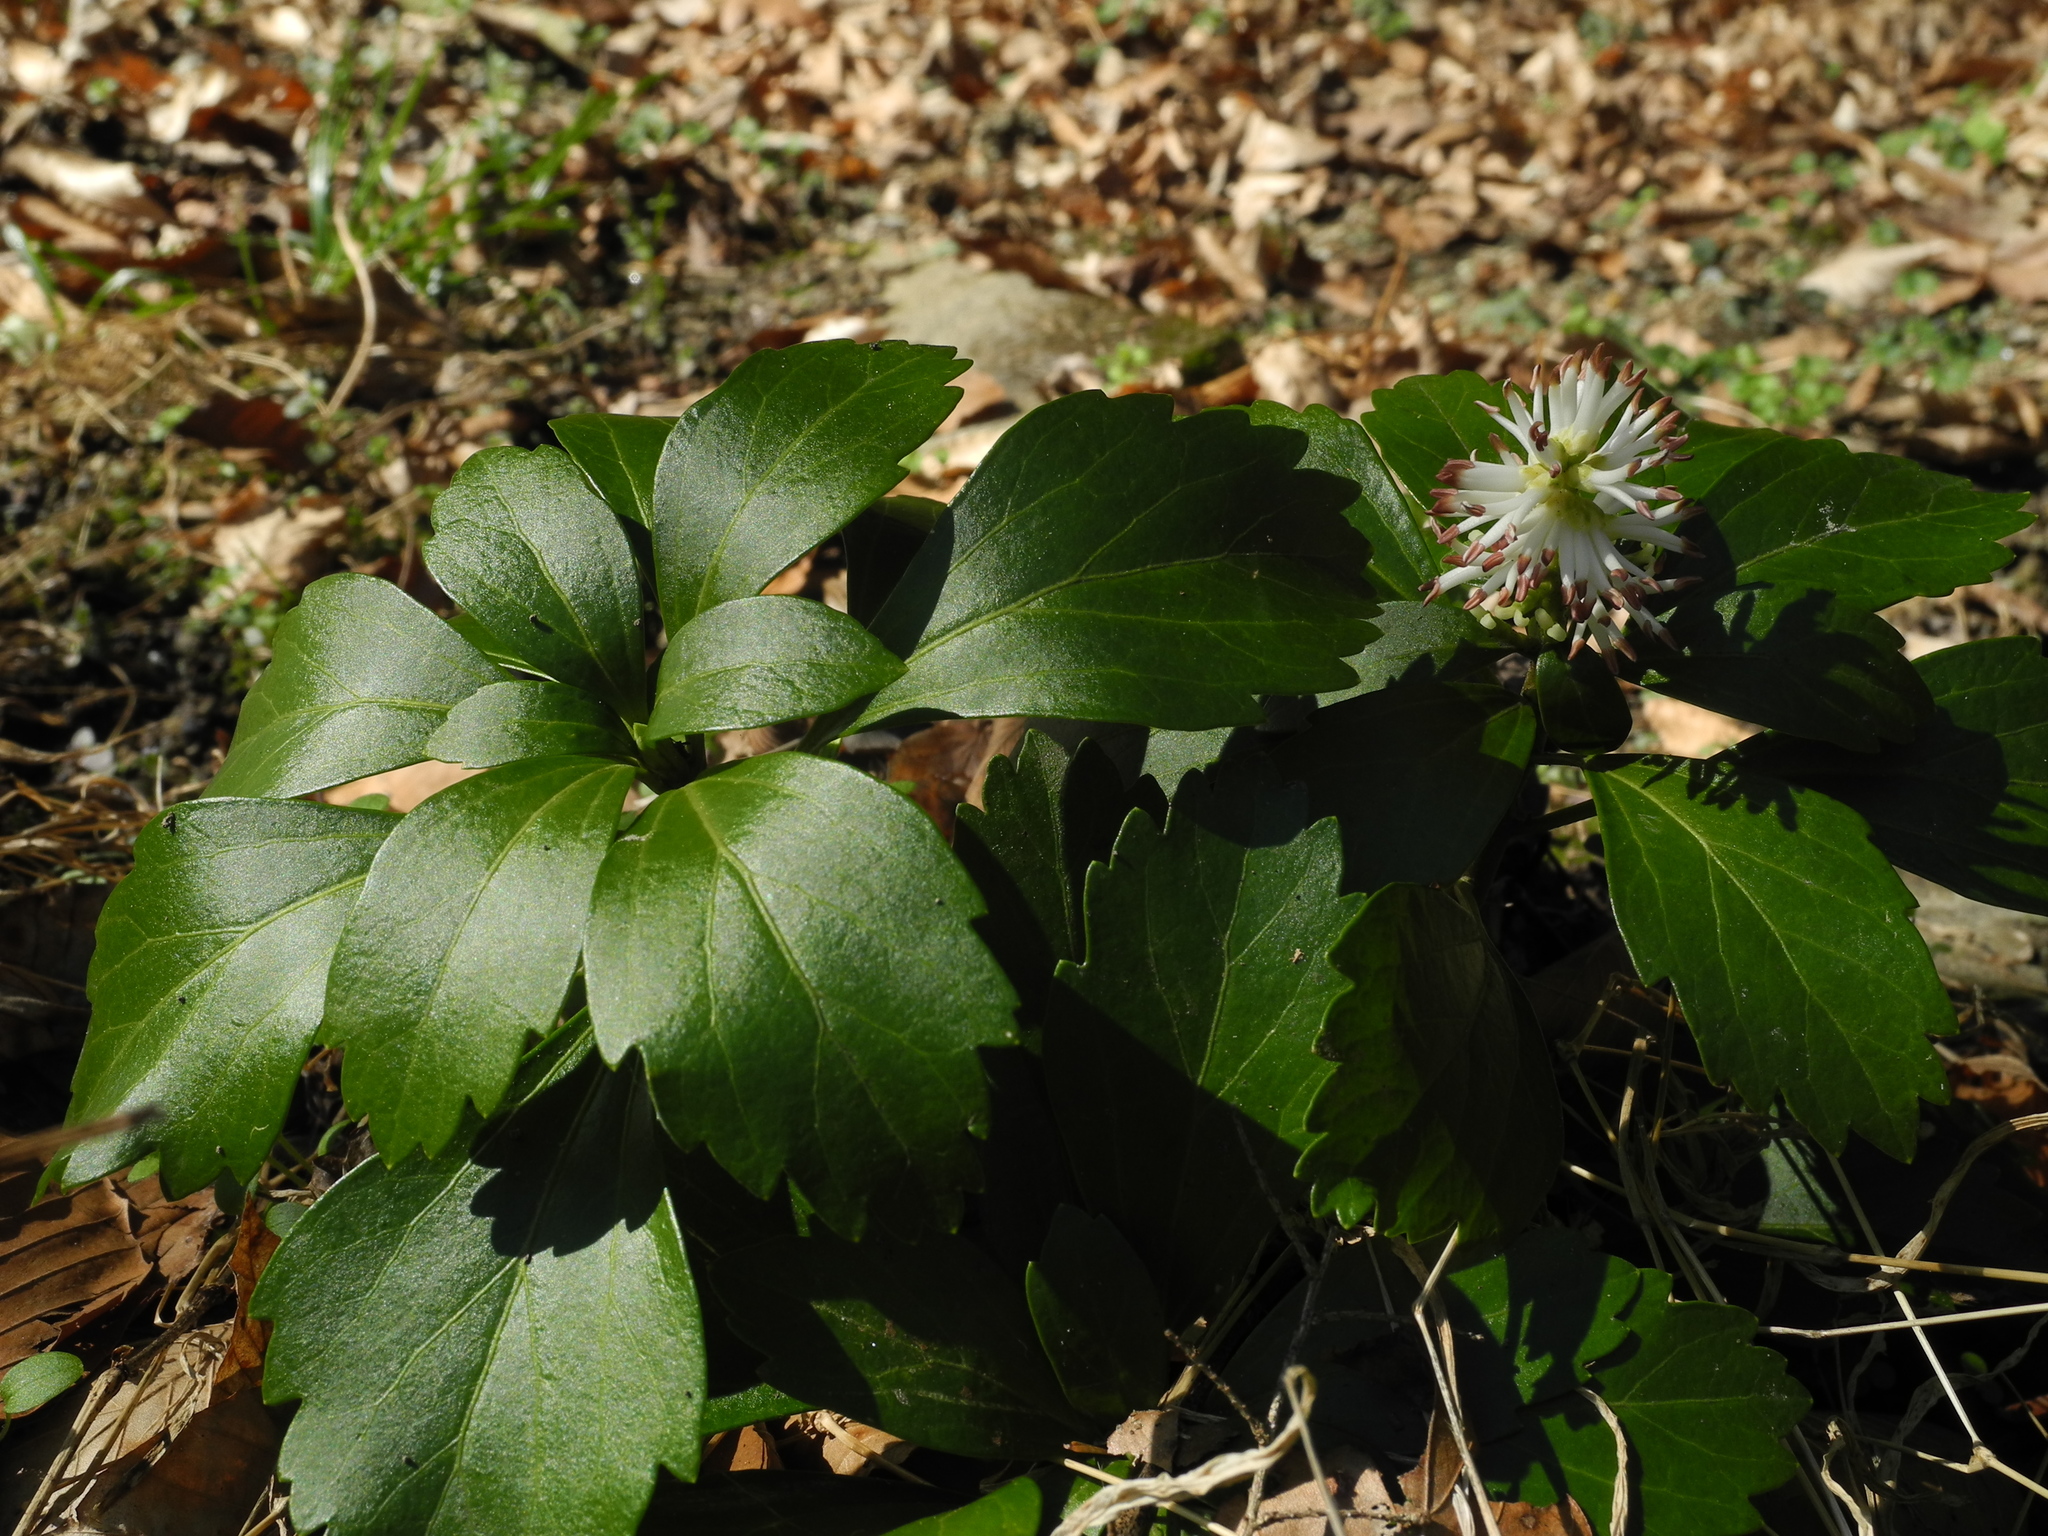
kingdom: Plantae
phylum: Tracheophyta
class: Magnoliopsida
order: Buxales
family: Buxaceae
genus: Pachysandra
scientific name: Pachysandra terminalis
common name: Japanese pachysandra
